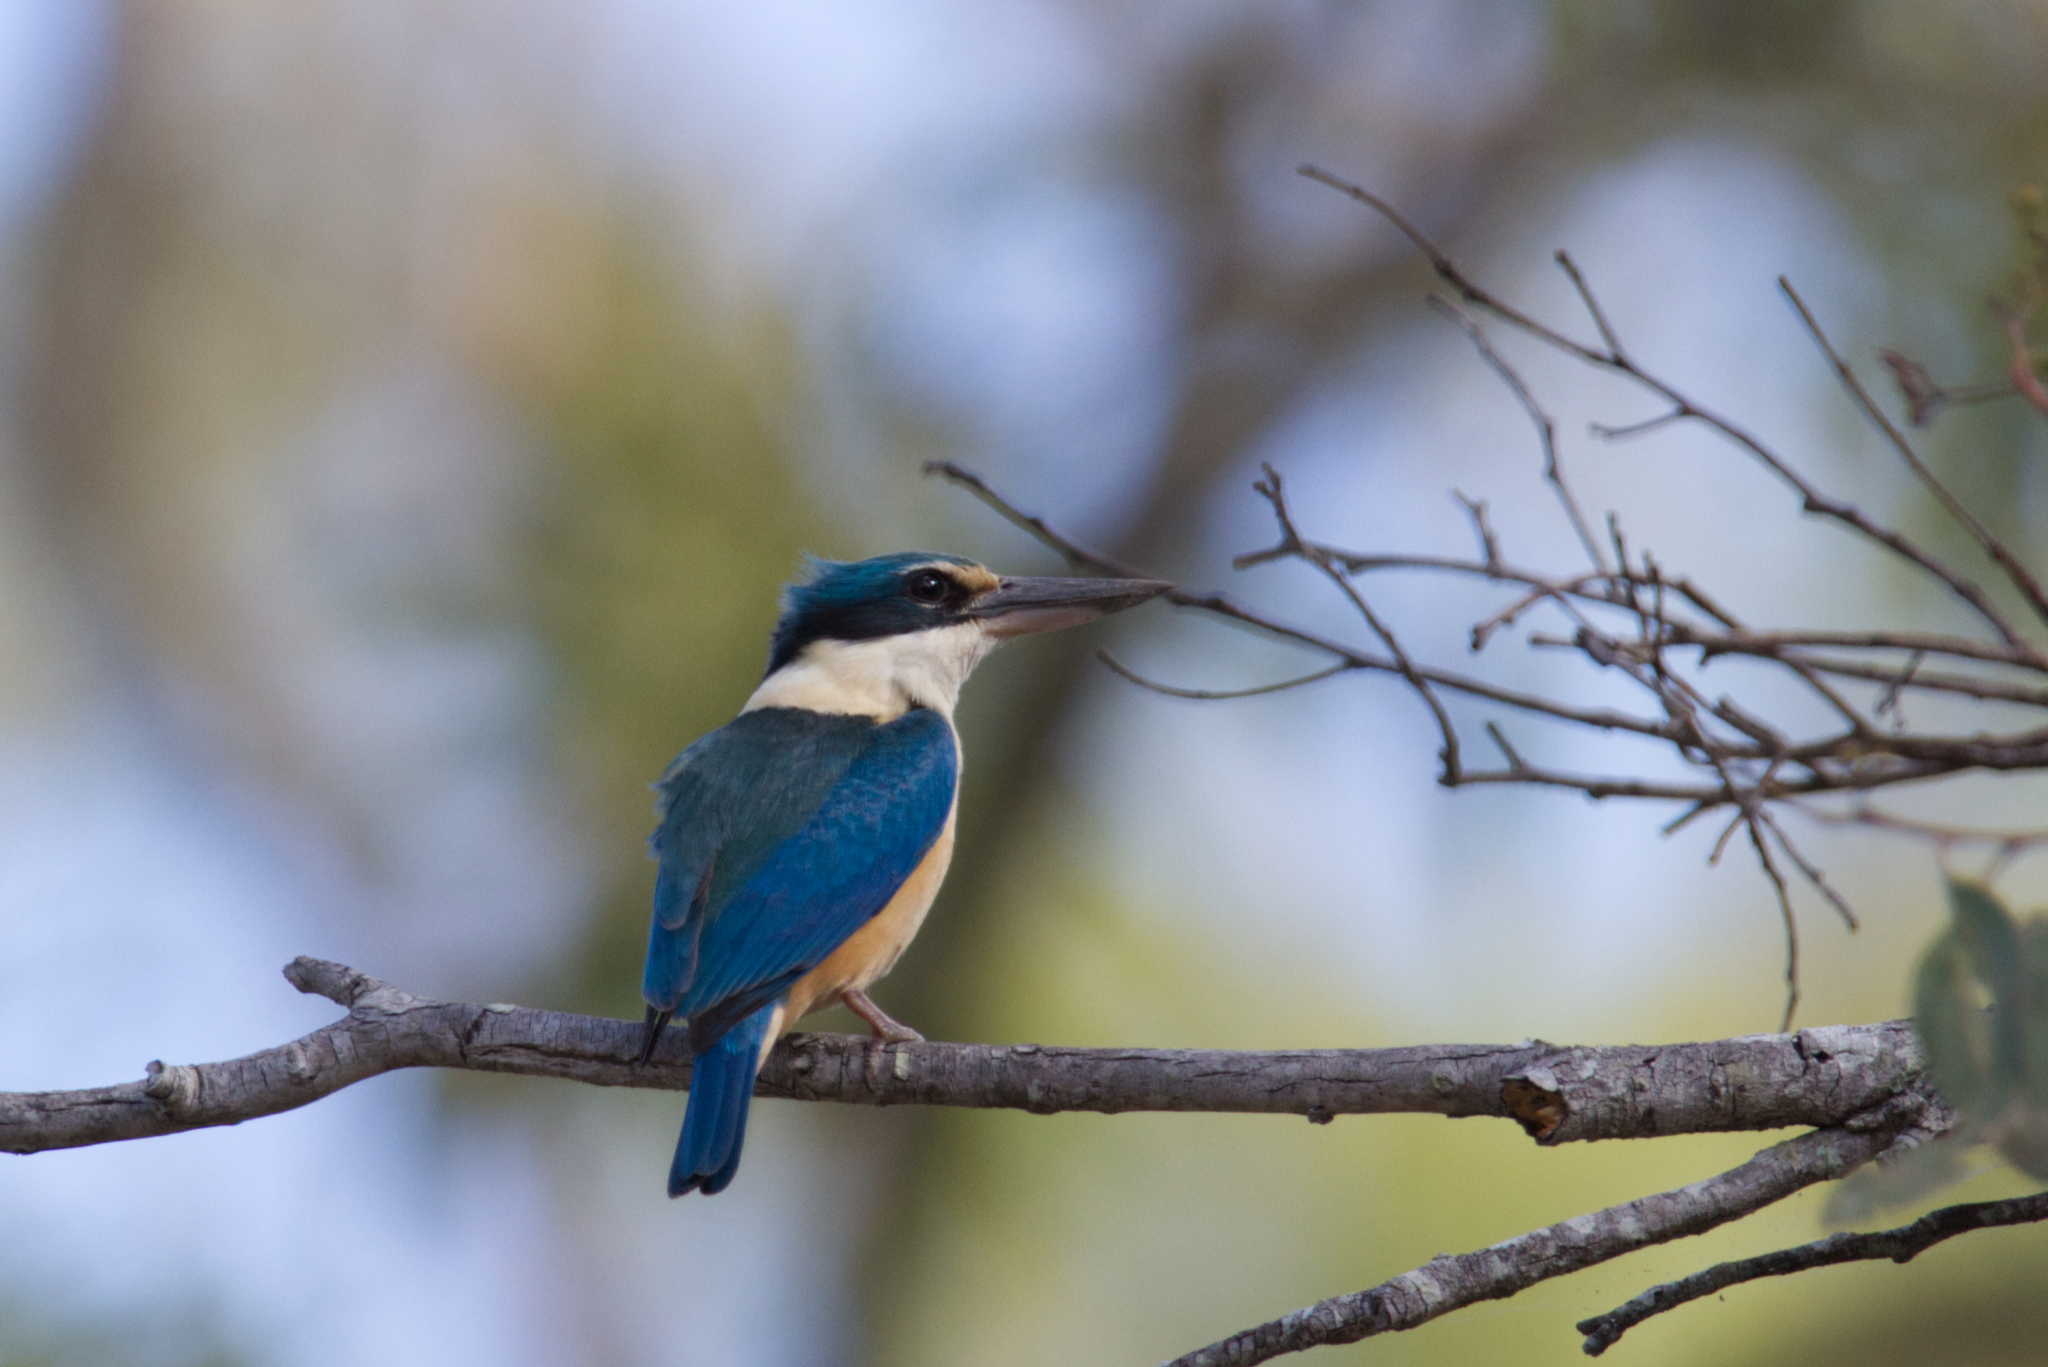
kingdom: Animalia
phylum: Chordata
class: Aves
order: Coraciiformes
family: Alcedinidae
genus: Todiramphus
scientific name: Todiramphus sanctus
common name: Sacred kingfisher
